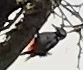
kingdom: Animalia
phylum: Chordata
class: Aves
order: Piciformes
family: Picidae
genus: Dendrocopos
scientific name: Dendrocopos major
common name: Great spotted woodpecker
